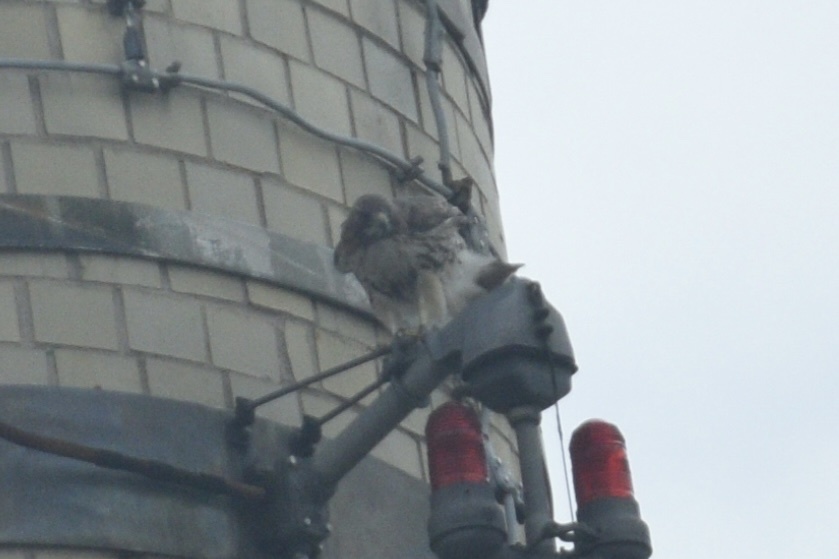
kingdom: Animalia
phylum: Chordata
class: Aves
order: Accipitriformes
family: Accipitridae
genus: Buteo
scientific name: Buteo jamaicensis
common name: Red-tailed hawk
